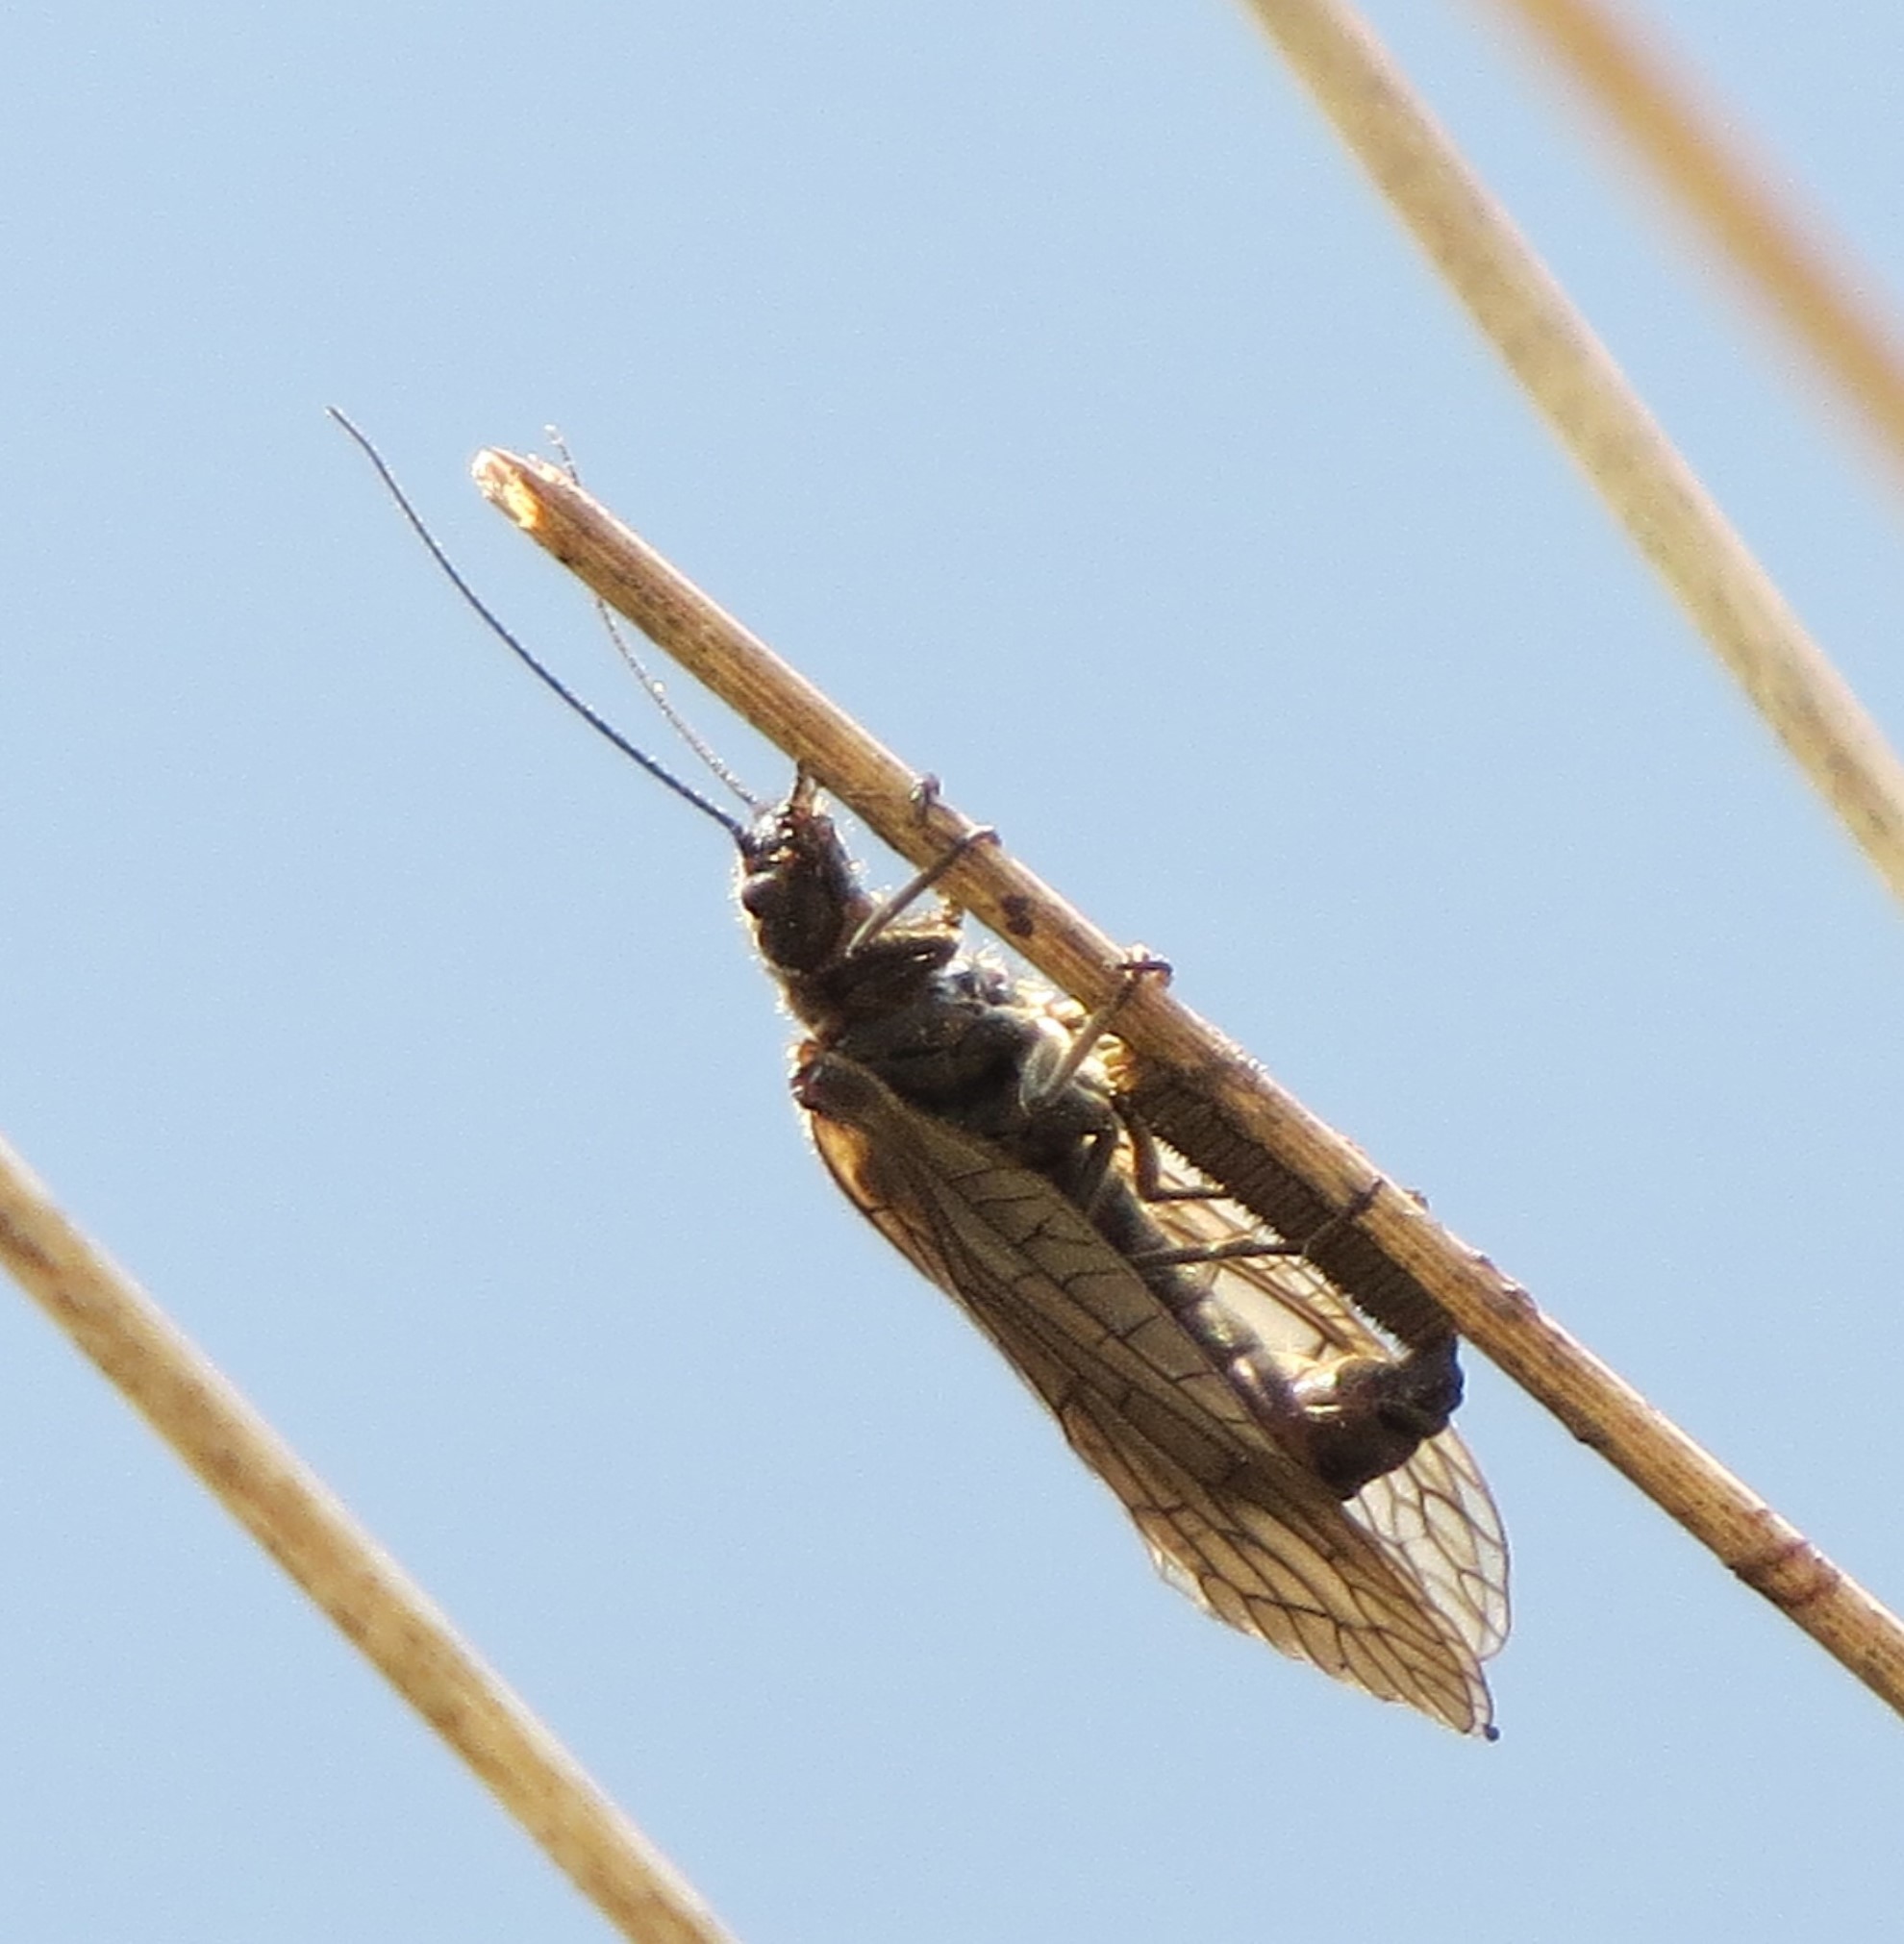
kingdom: Animalia
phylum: Arthropoda
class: Insecta
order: Megaloptera
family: Sialidae
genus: Sialis
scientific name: Sialis
